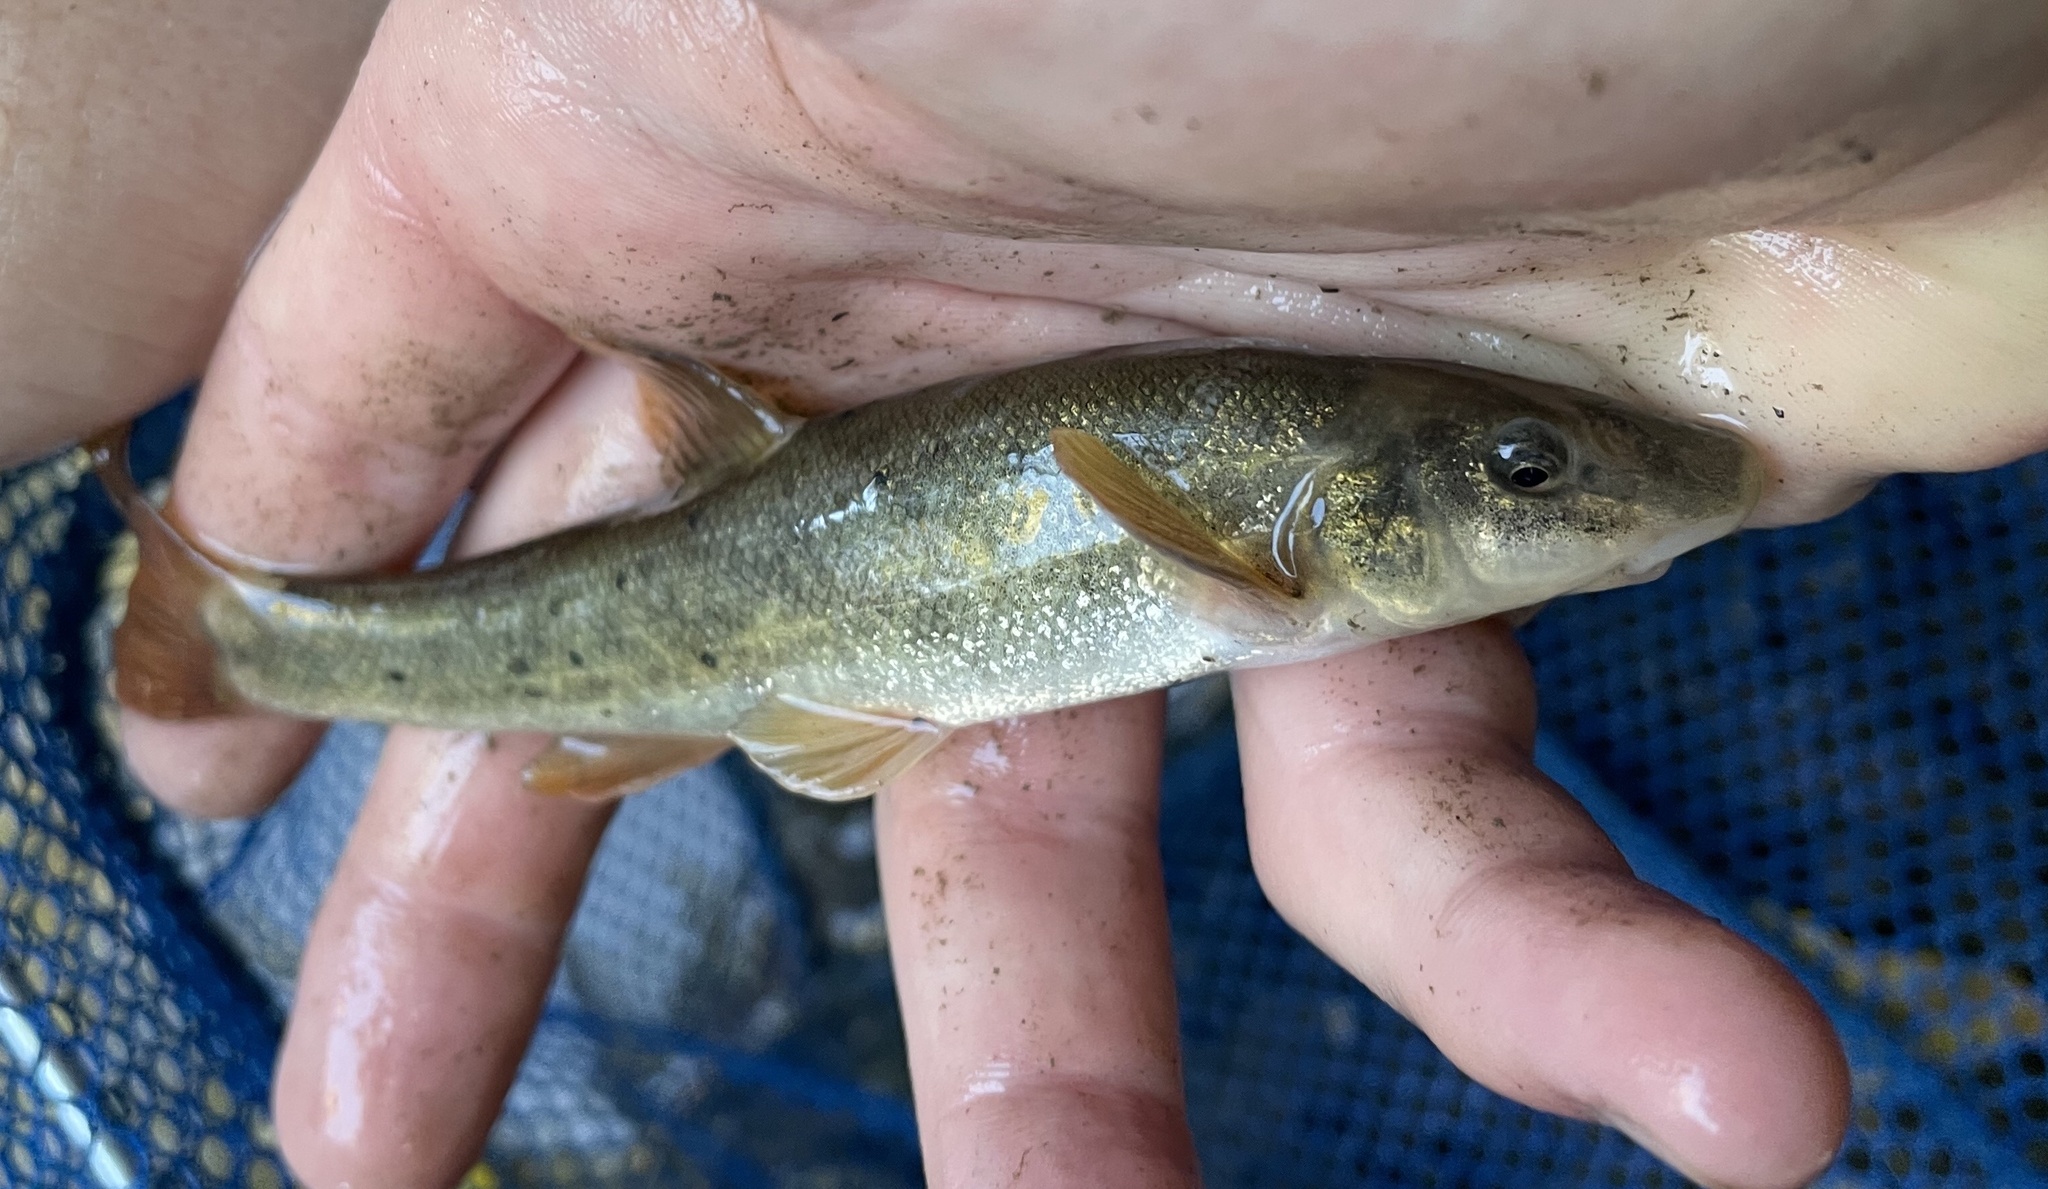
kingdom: Animalia
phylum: Platyhelminthes
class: Trematoda
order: Diplostomida
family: Diplostomidae
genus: Neascus
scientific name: Neascus
